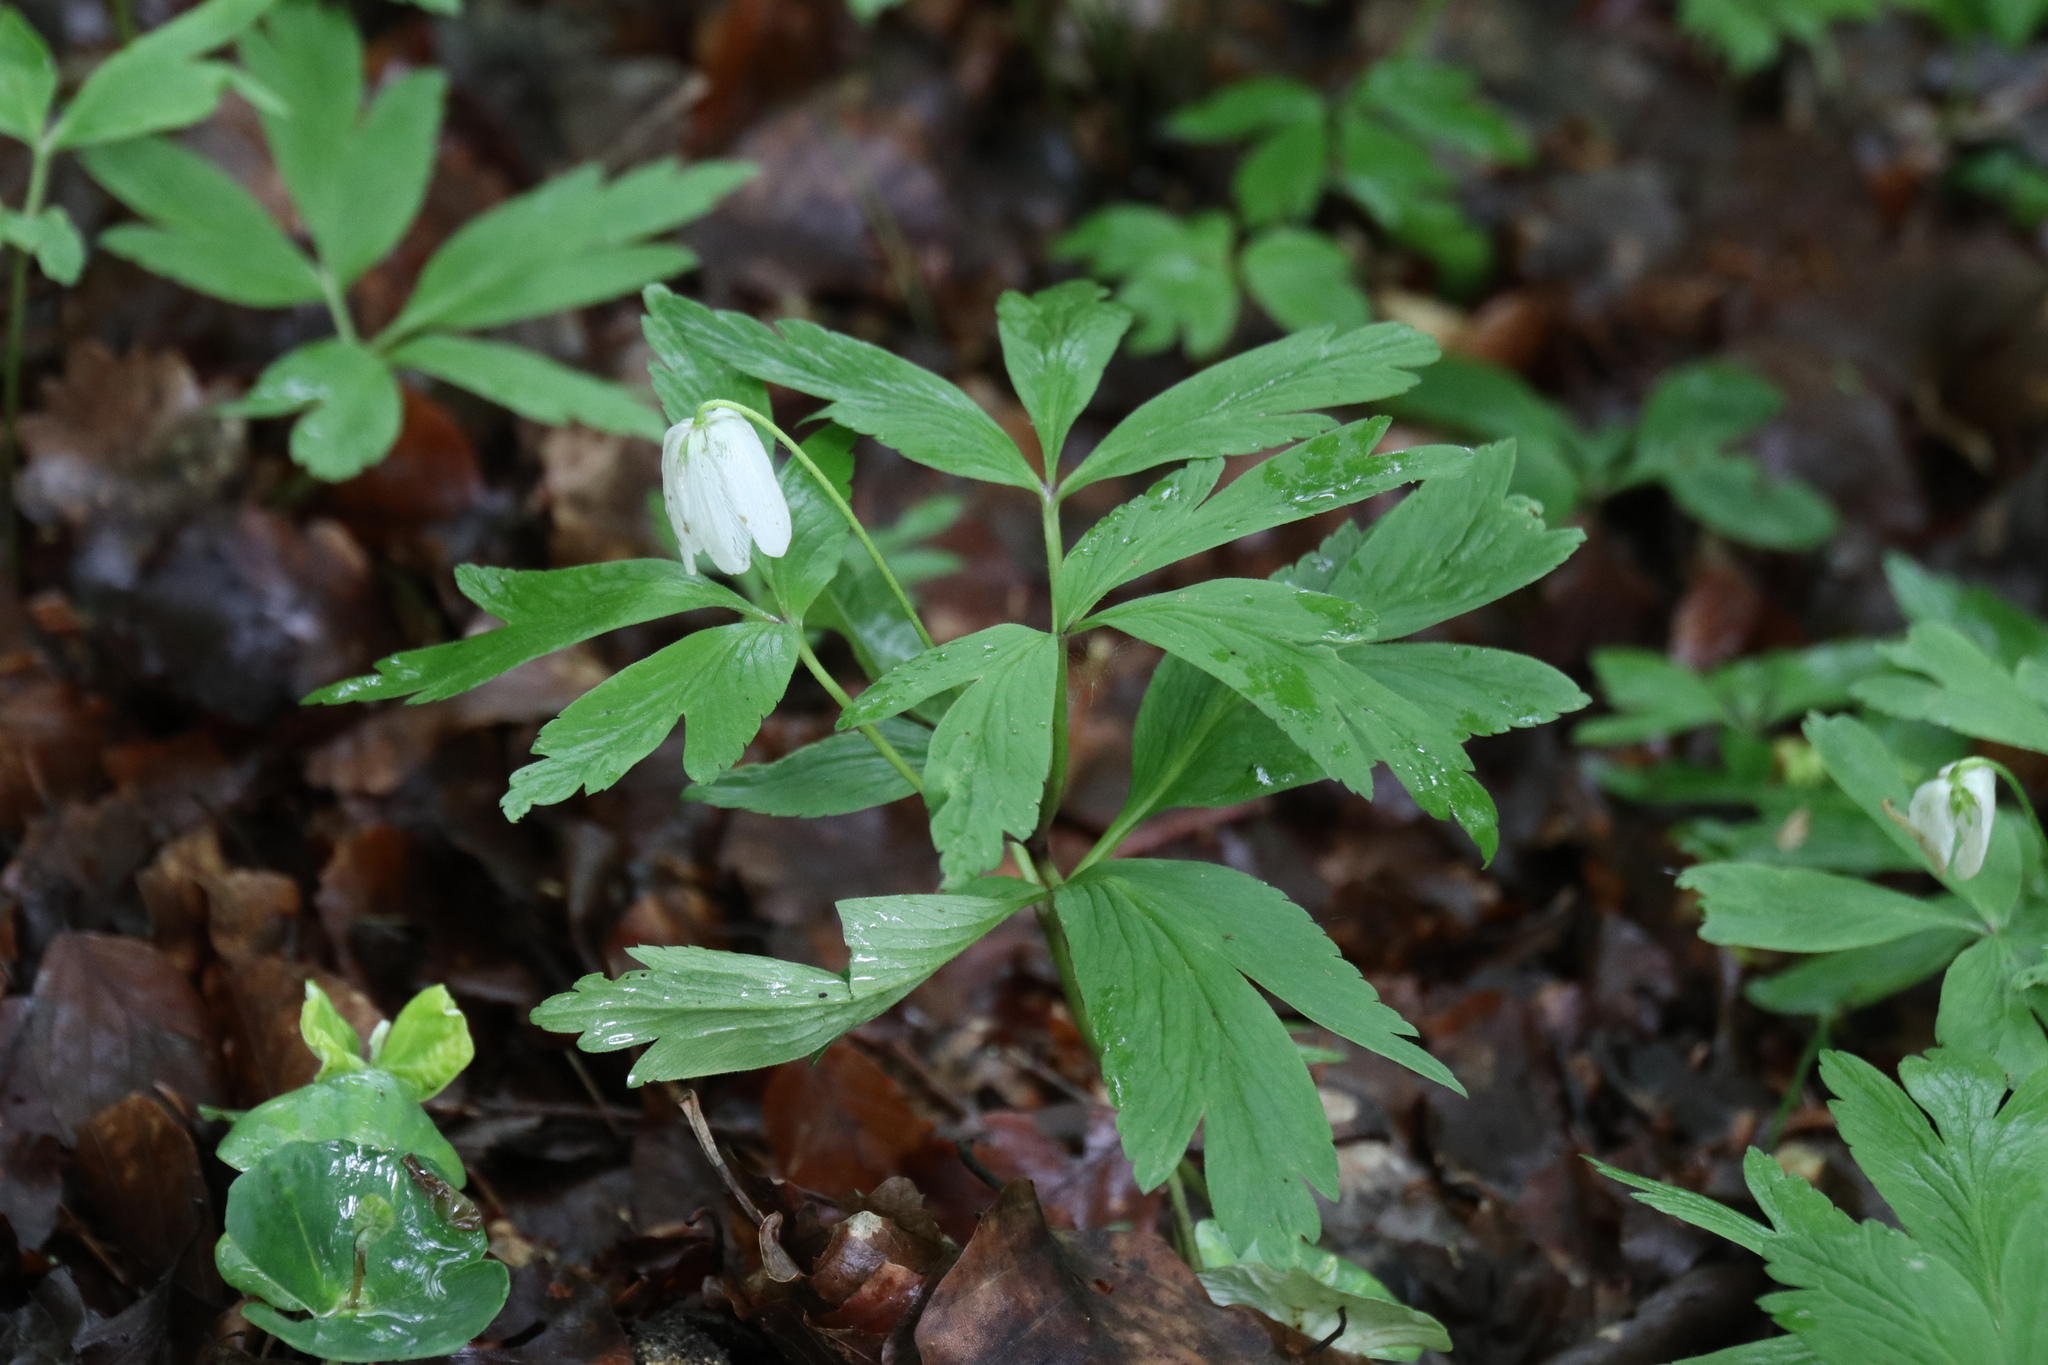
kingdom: Plantae
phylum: Tracheophyta
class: Magnoliopsida
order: Ranunculales
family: Ranunculaceae
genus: Anemone
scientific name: Anemone nemorosa
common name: Wood anemone
